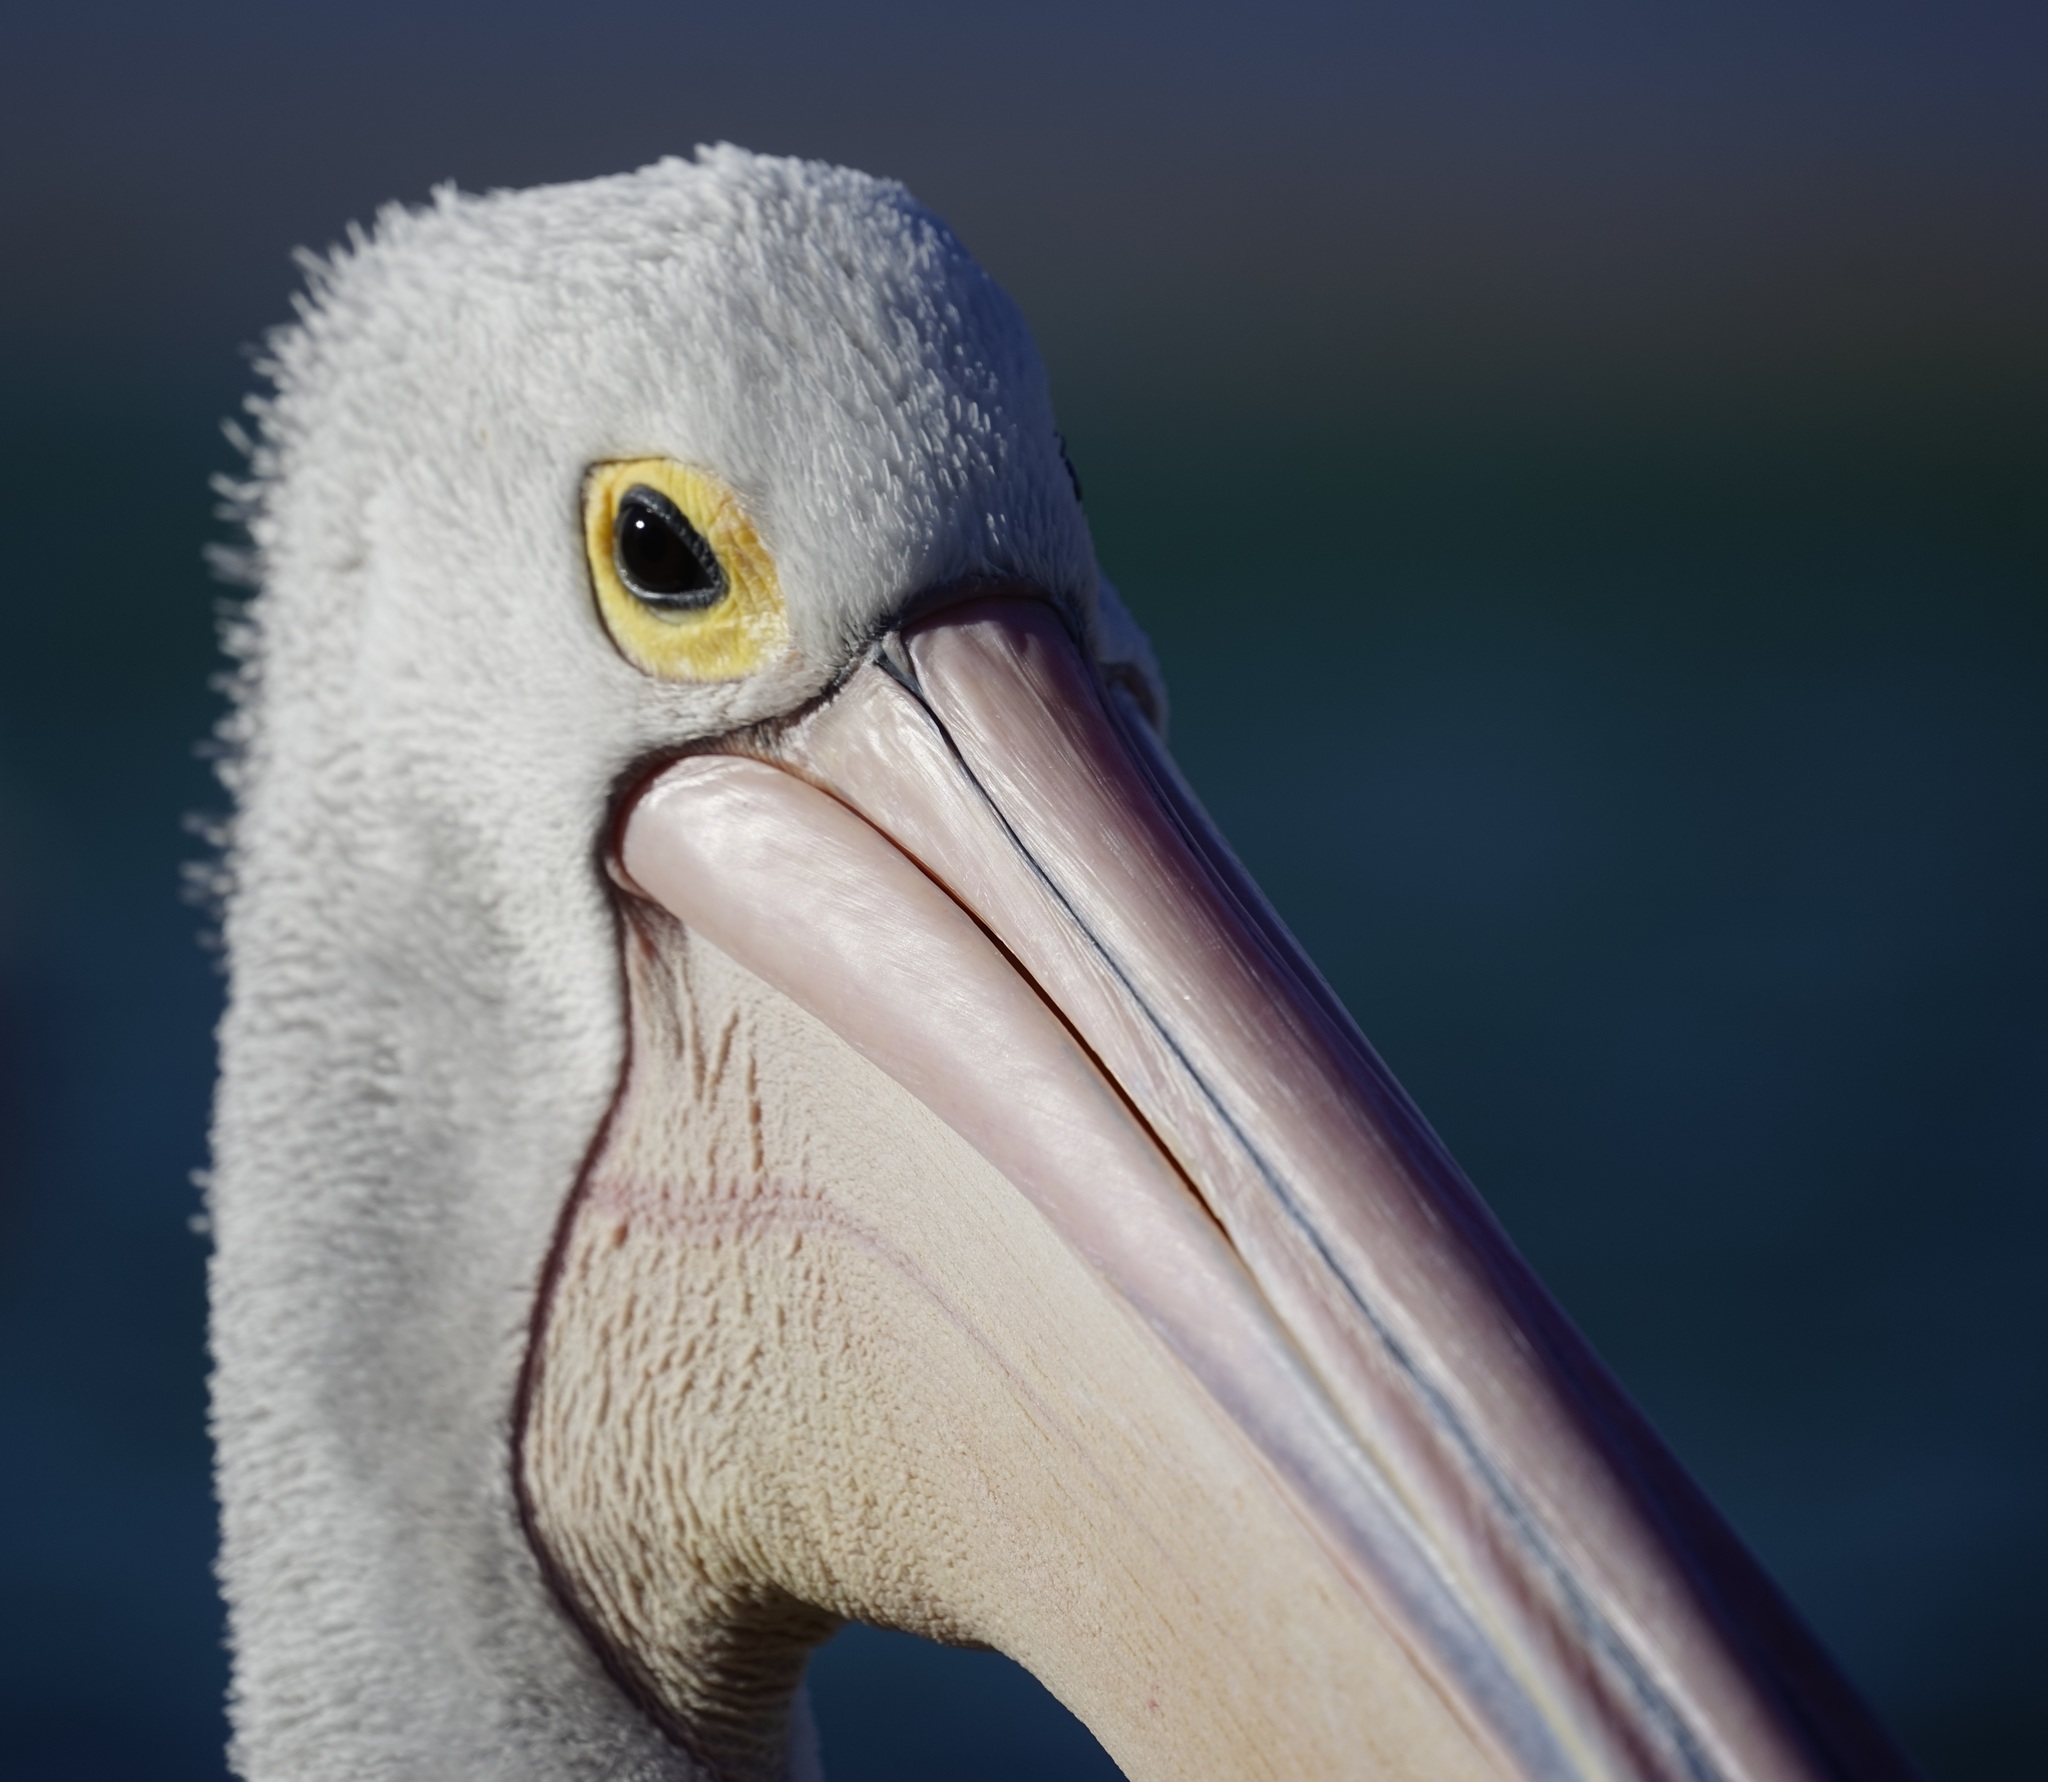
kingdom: Animalia
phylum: Chordata
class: Aves
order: Pelecaniformes
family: Pelecanidae
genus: Pelecanus
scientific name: Pelecanus conspicillatus
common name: Australian pelican
